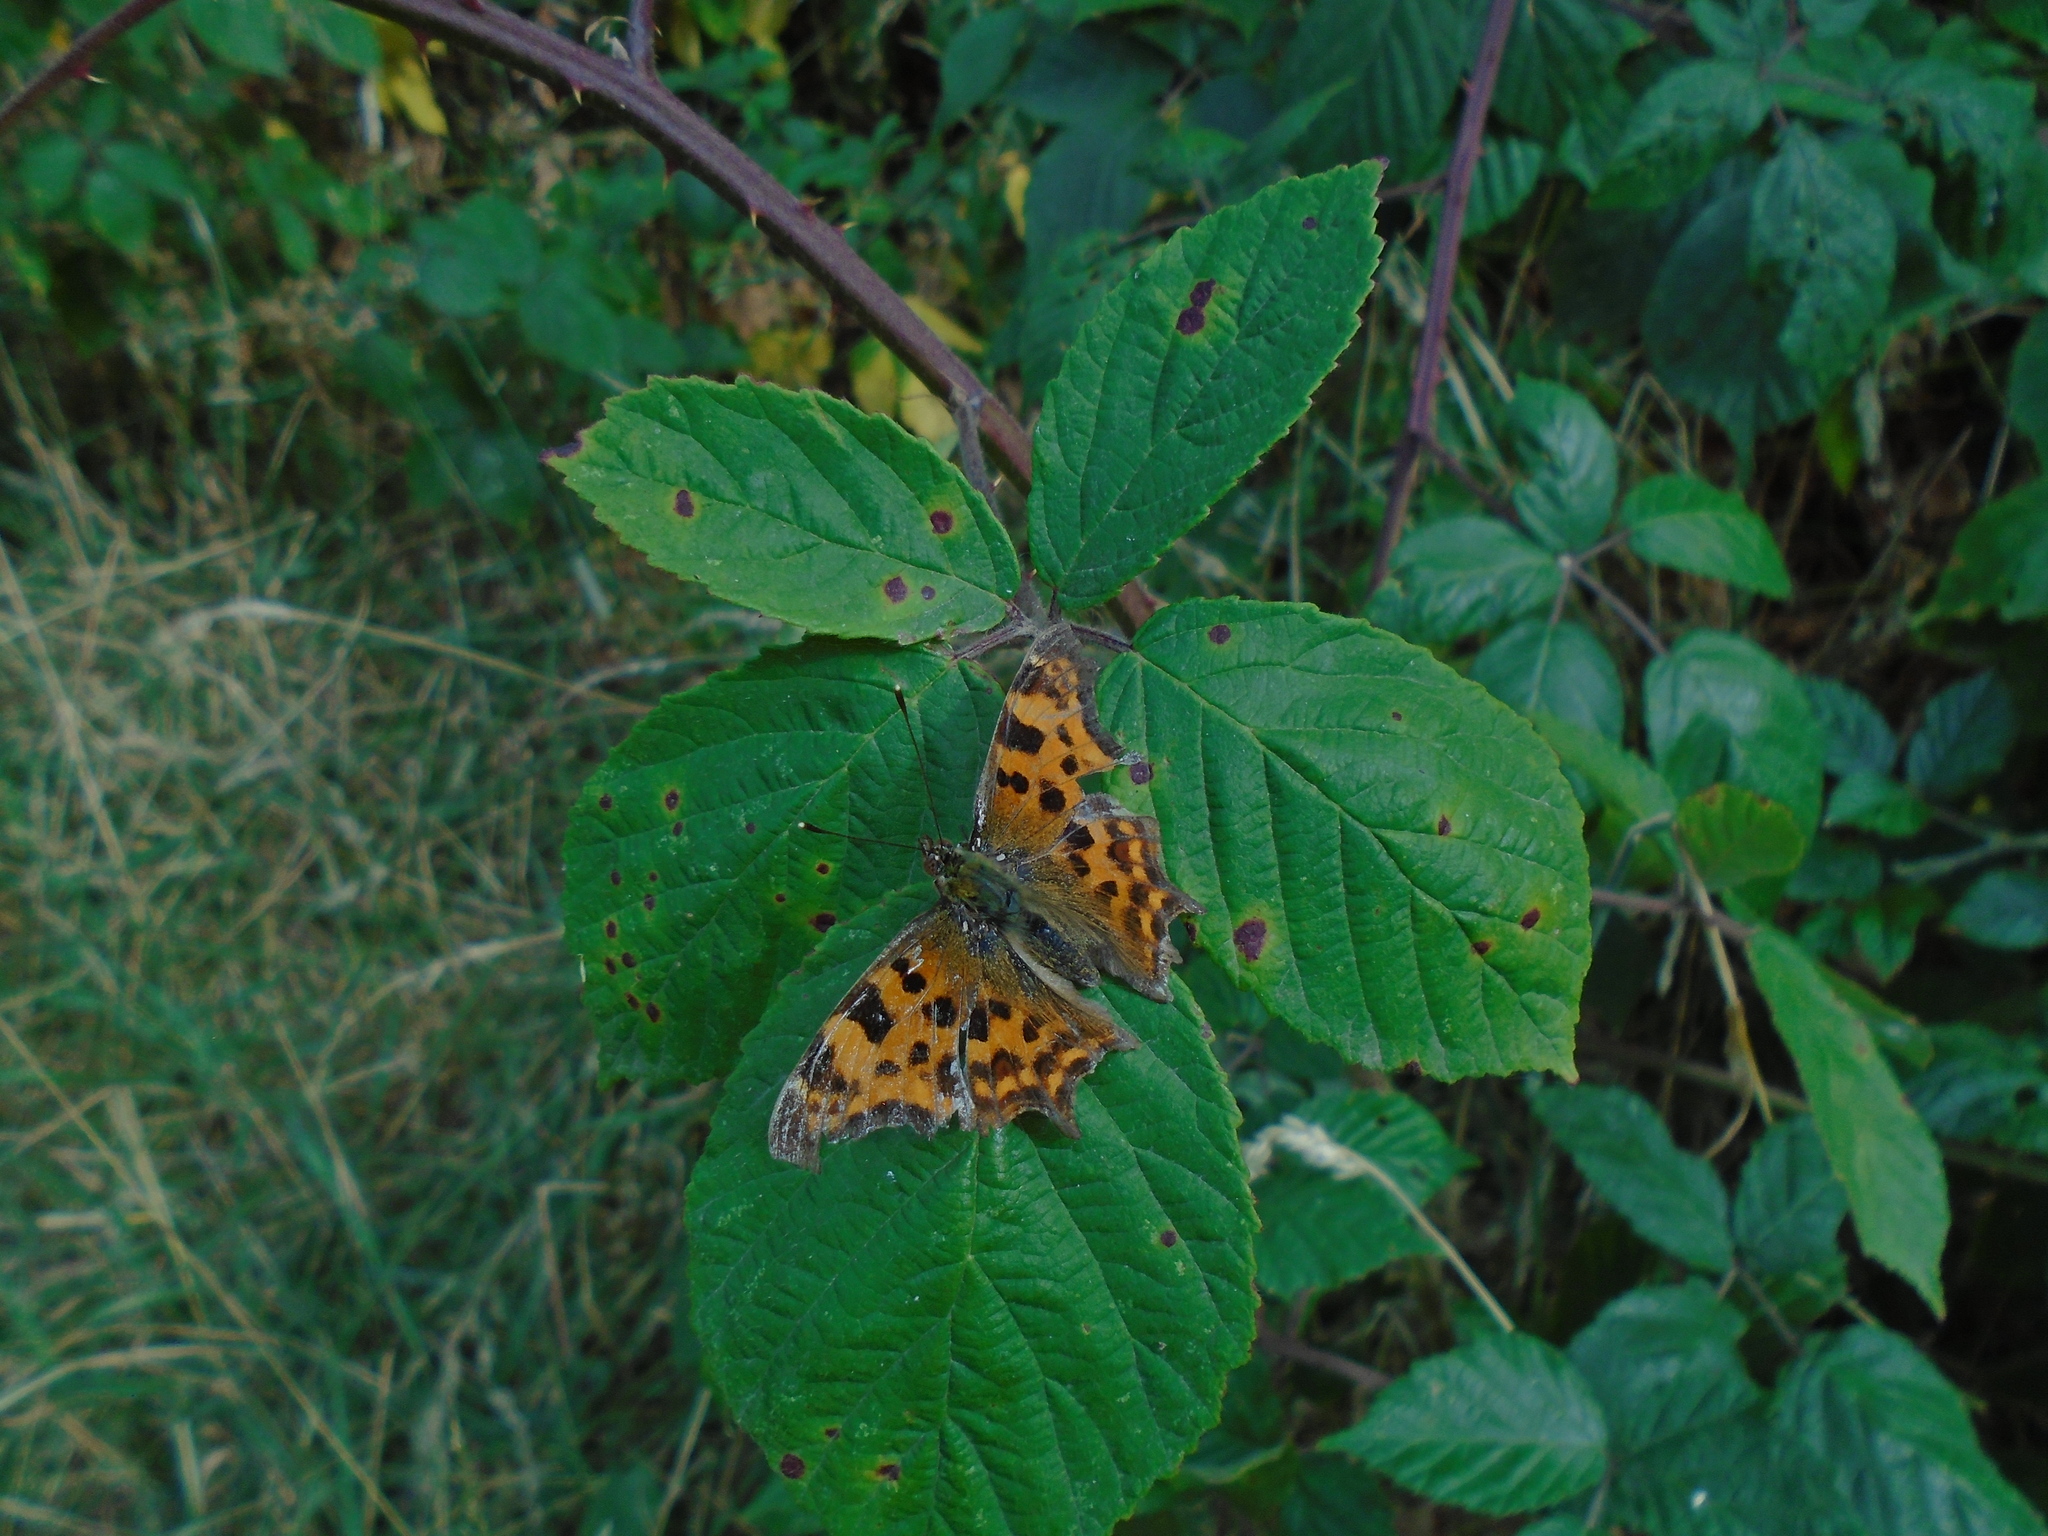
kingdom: Animalia
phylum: Arthropoda
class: Insecta
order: Lepidoptera
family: Nymphalidae
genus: Polygonia
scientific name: Polygonia c-album
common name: Comma
